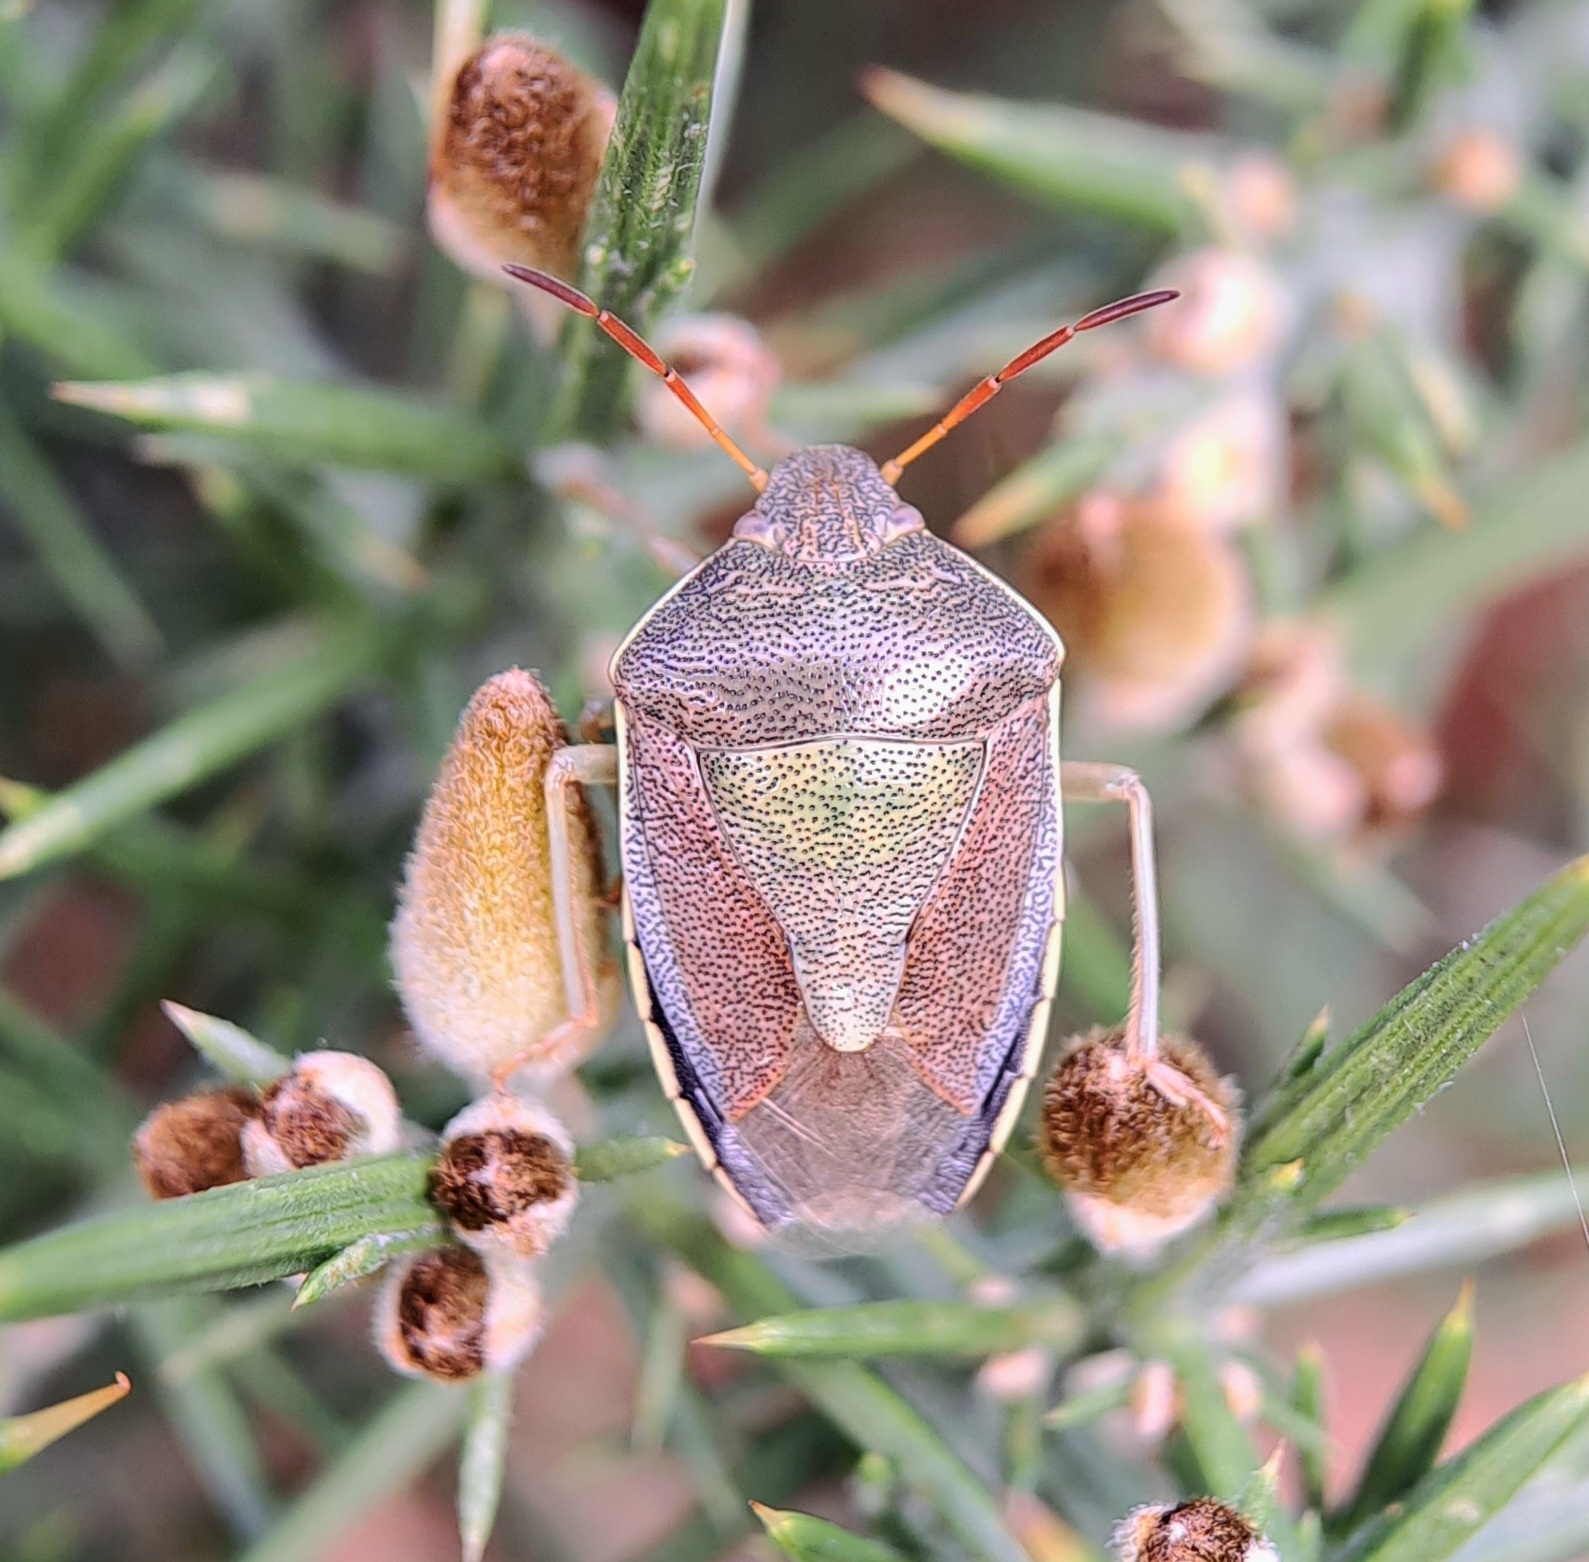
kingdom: Animalia
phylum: Arthropoda
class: Insecta
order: Hemiptera
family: Pentatomidae
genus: Piezodorus
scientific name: Piezodorus lituratus
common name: Stink bug
